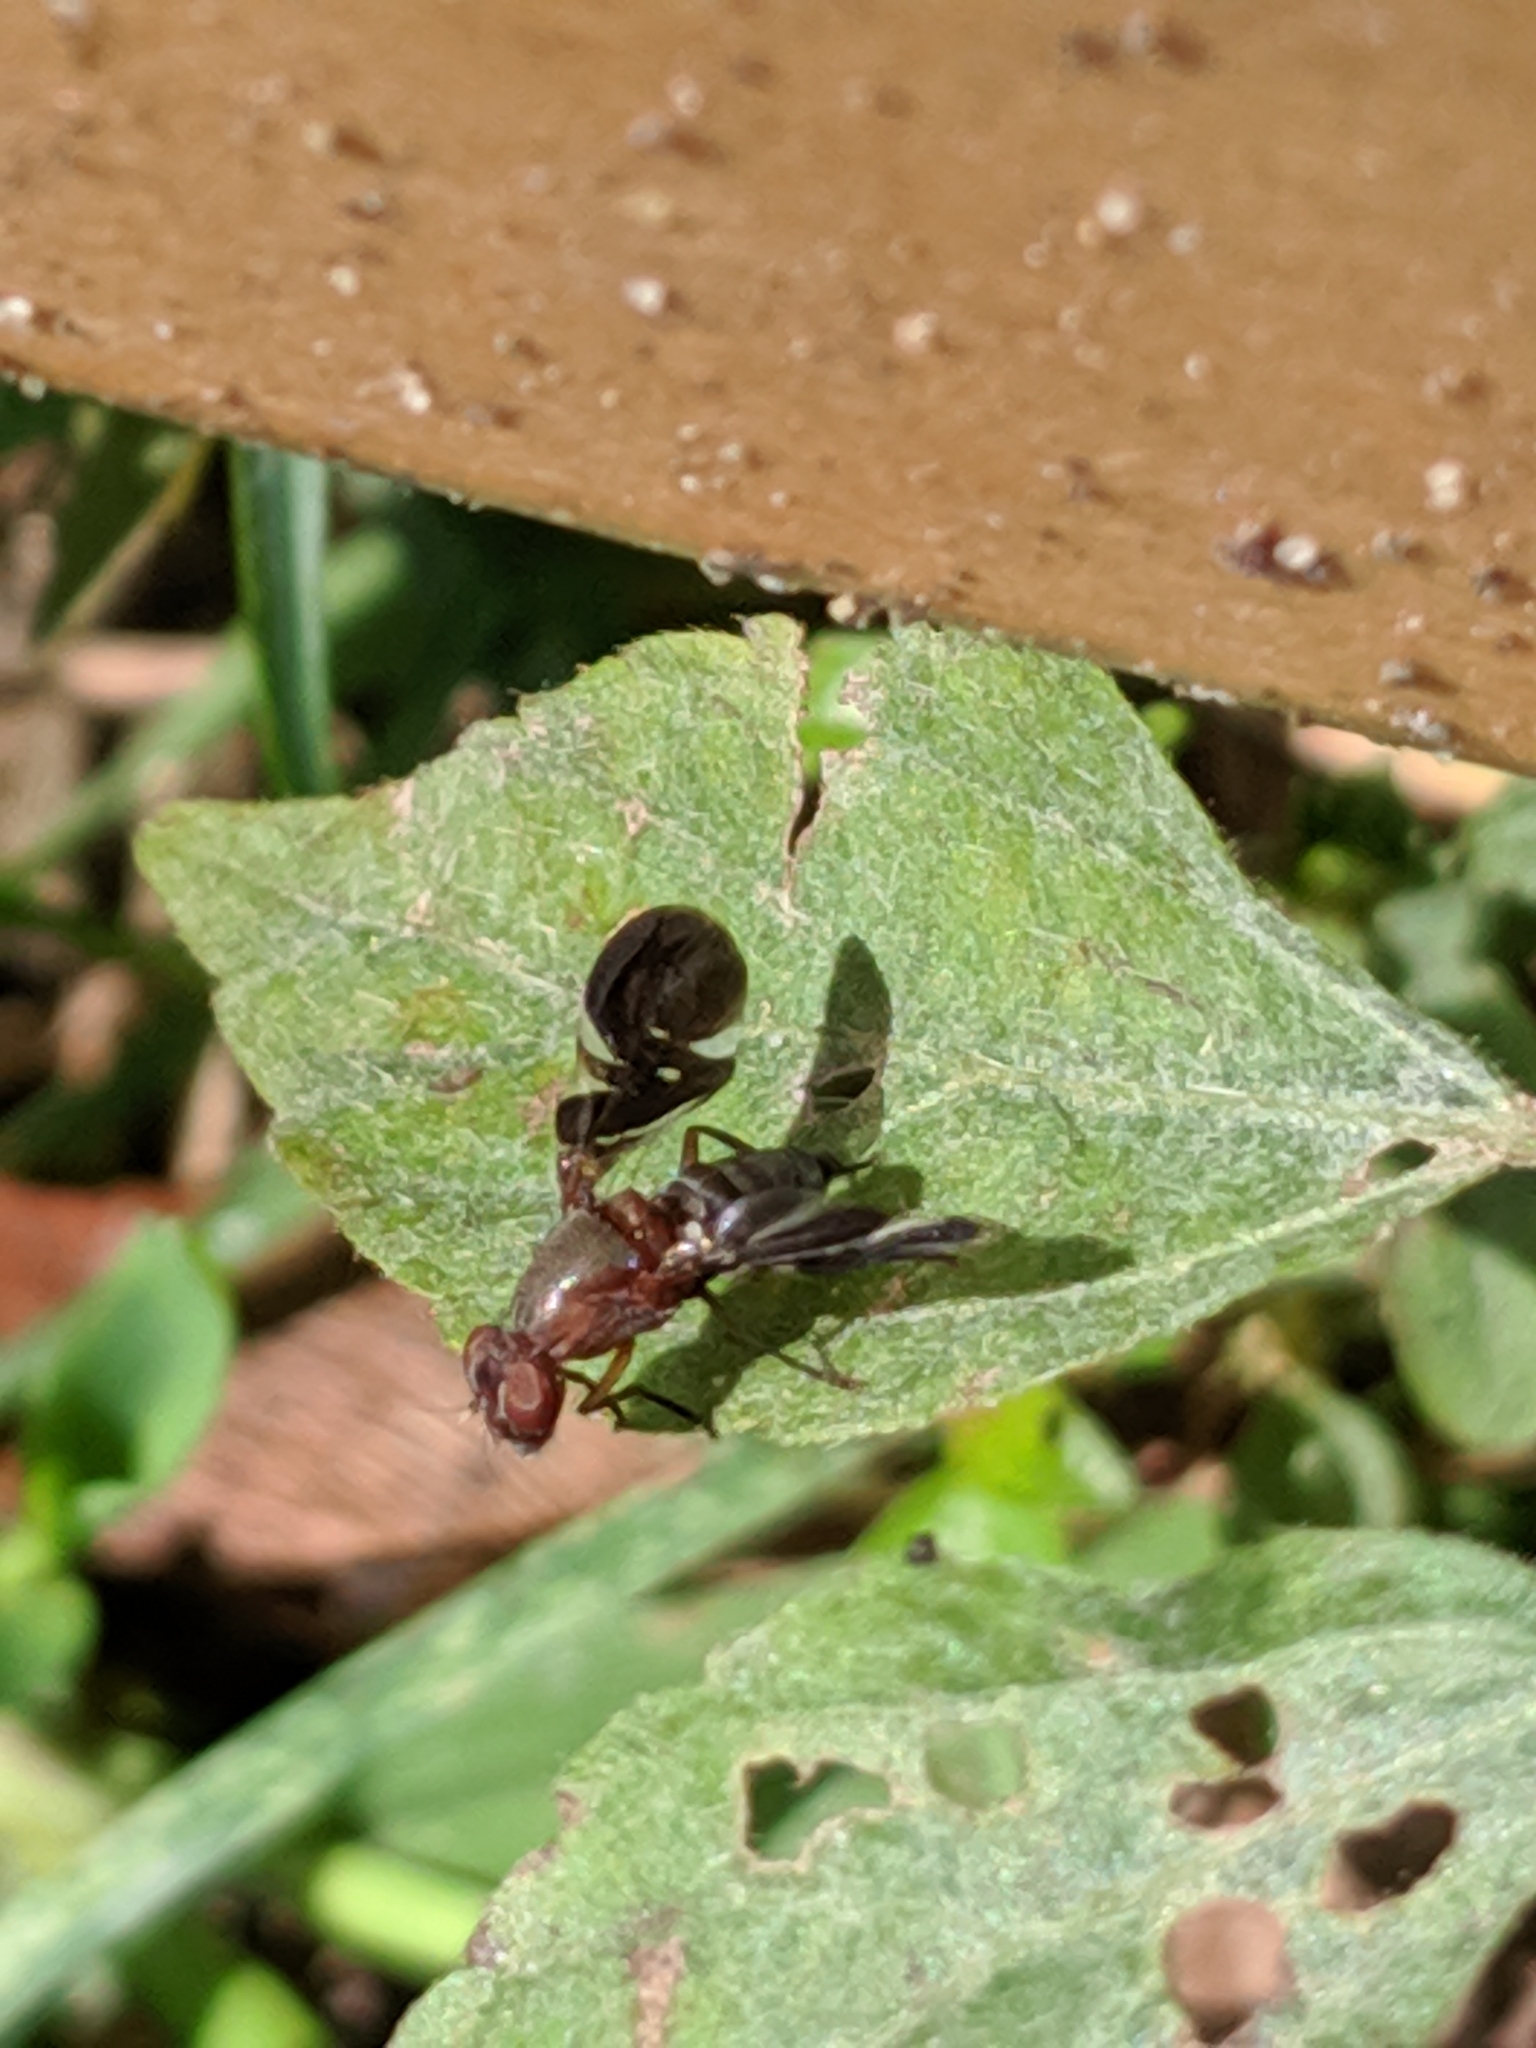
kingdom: Animalia
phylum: Arthropoda
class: Insecta
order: Diptera
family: Ulidiidae
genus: Delphinia
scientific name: Delphinia picta
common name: Common picture-winged fly
